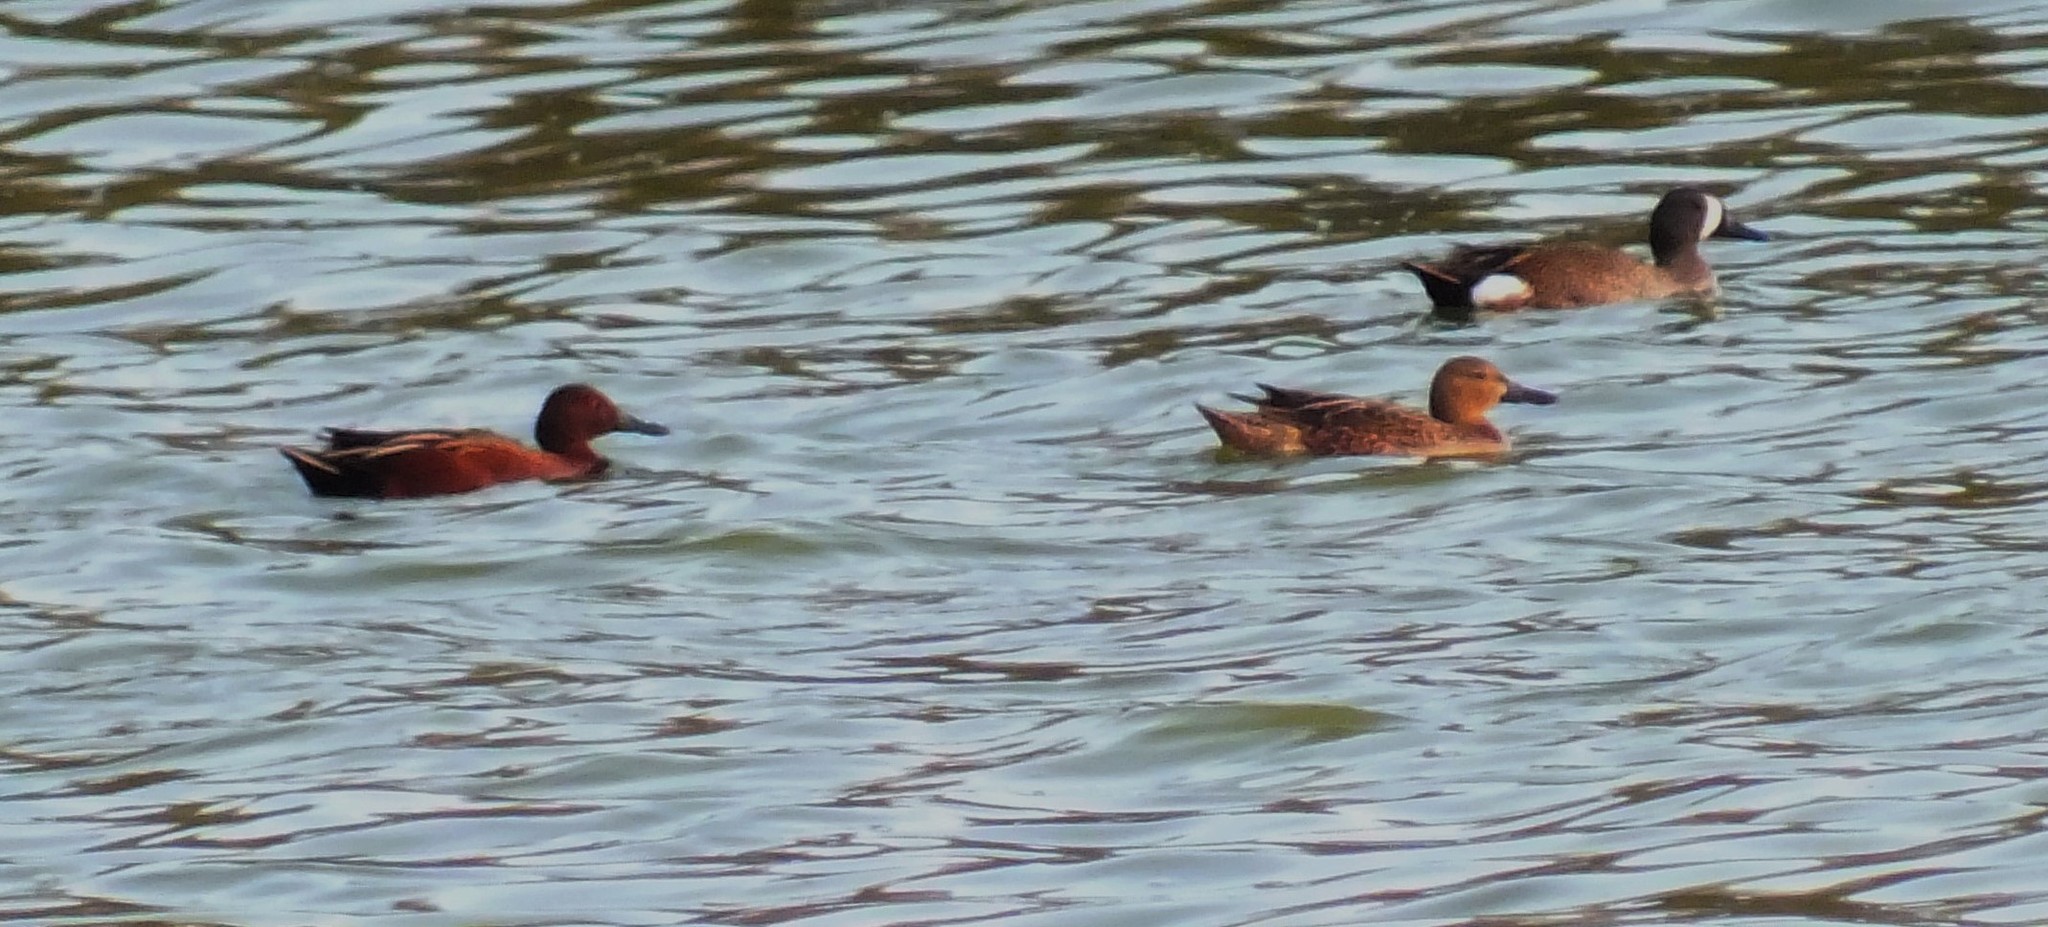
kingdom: Animalia
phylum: Chordata
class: Aves
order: Anseriformes
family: Anatidae
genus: Spatula
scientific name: Spatula cyanoptera
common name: Cinnamon teal
